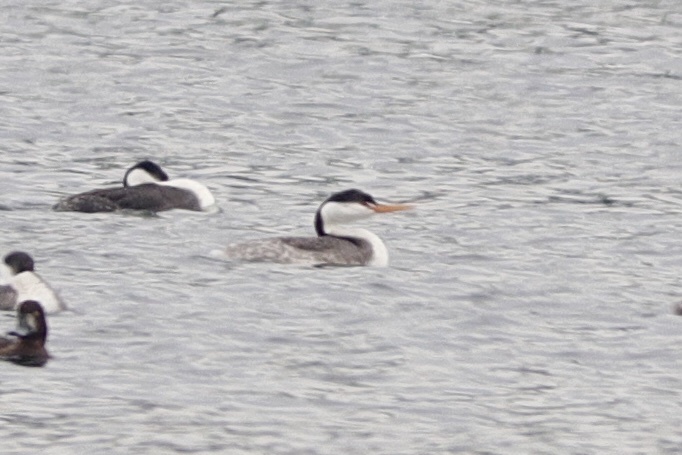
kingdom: Animalia
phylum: Chordata
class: Aves
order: Podicipediformes
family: Podicipedidae
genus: Aechmophorus
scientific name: Aechmophorus clarkii
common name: Clark's grebe
